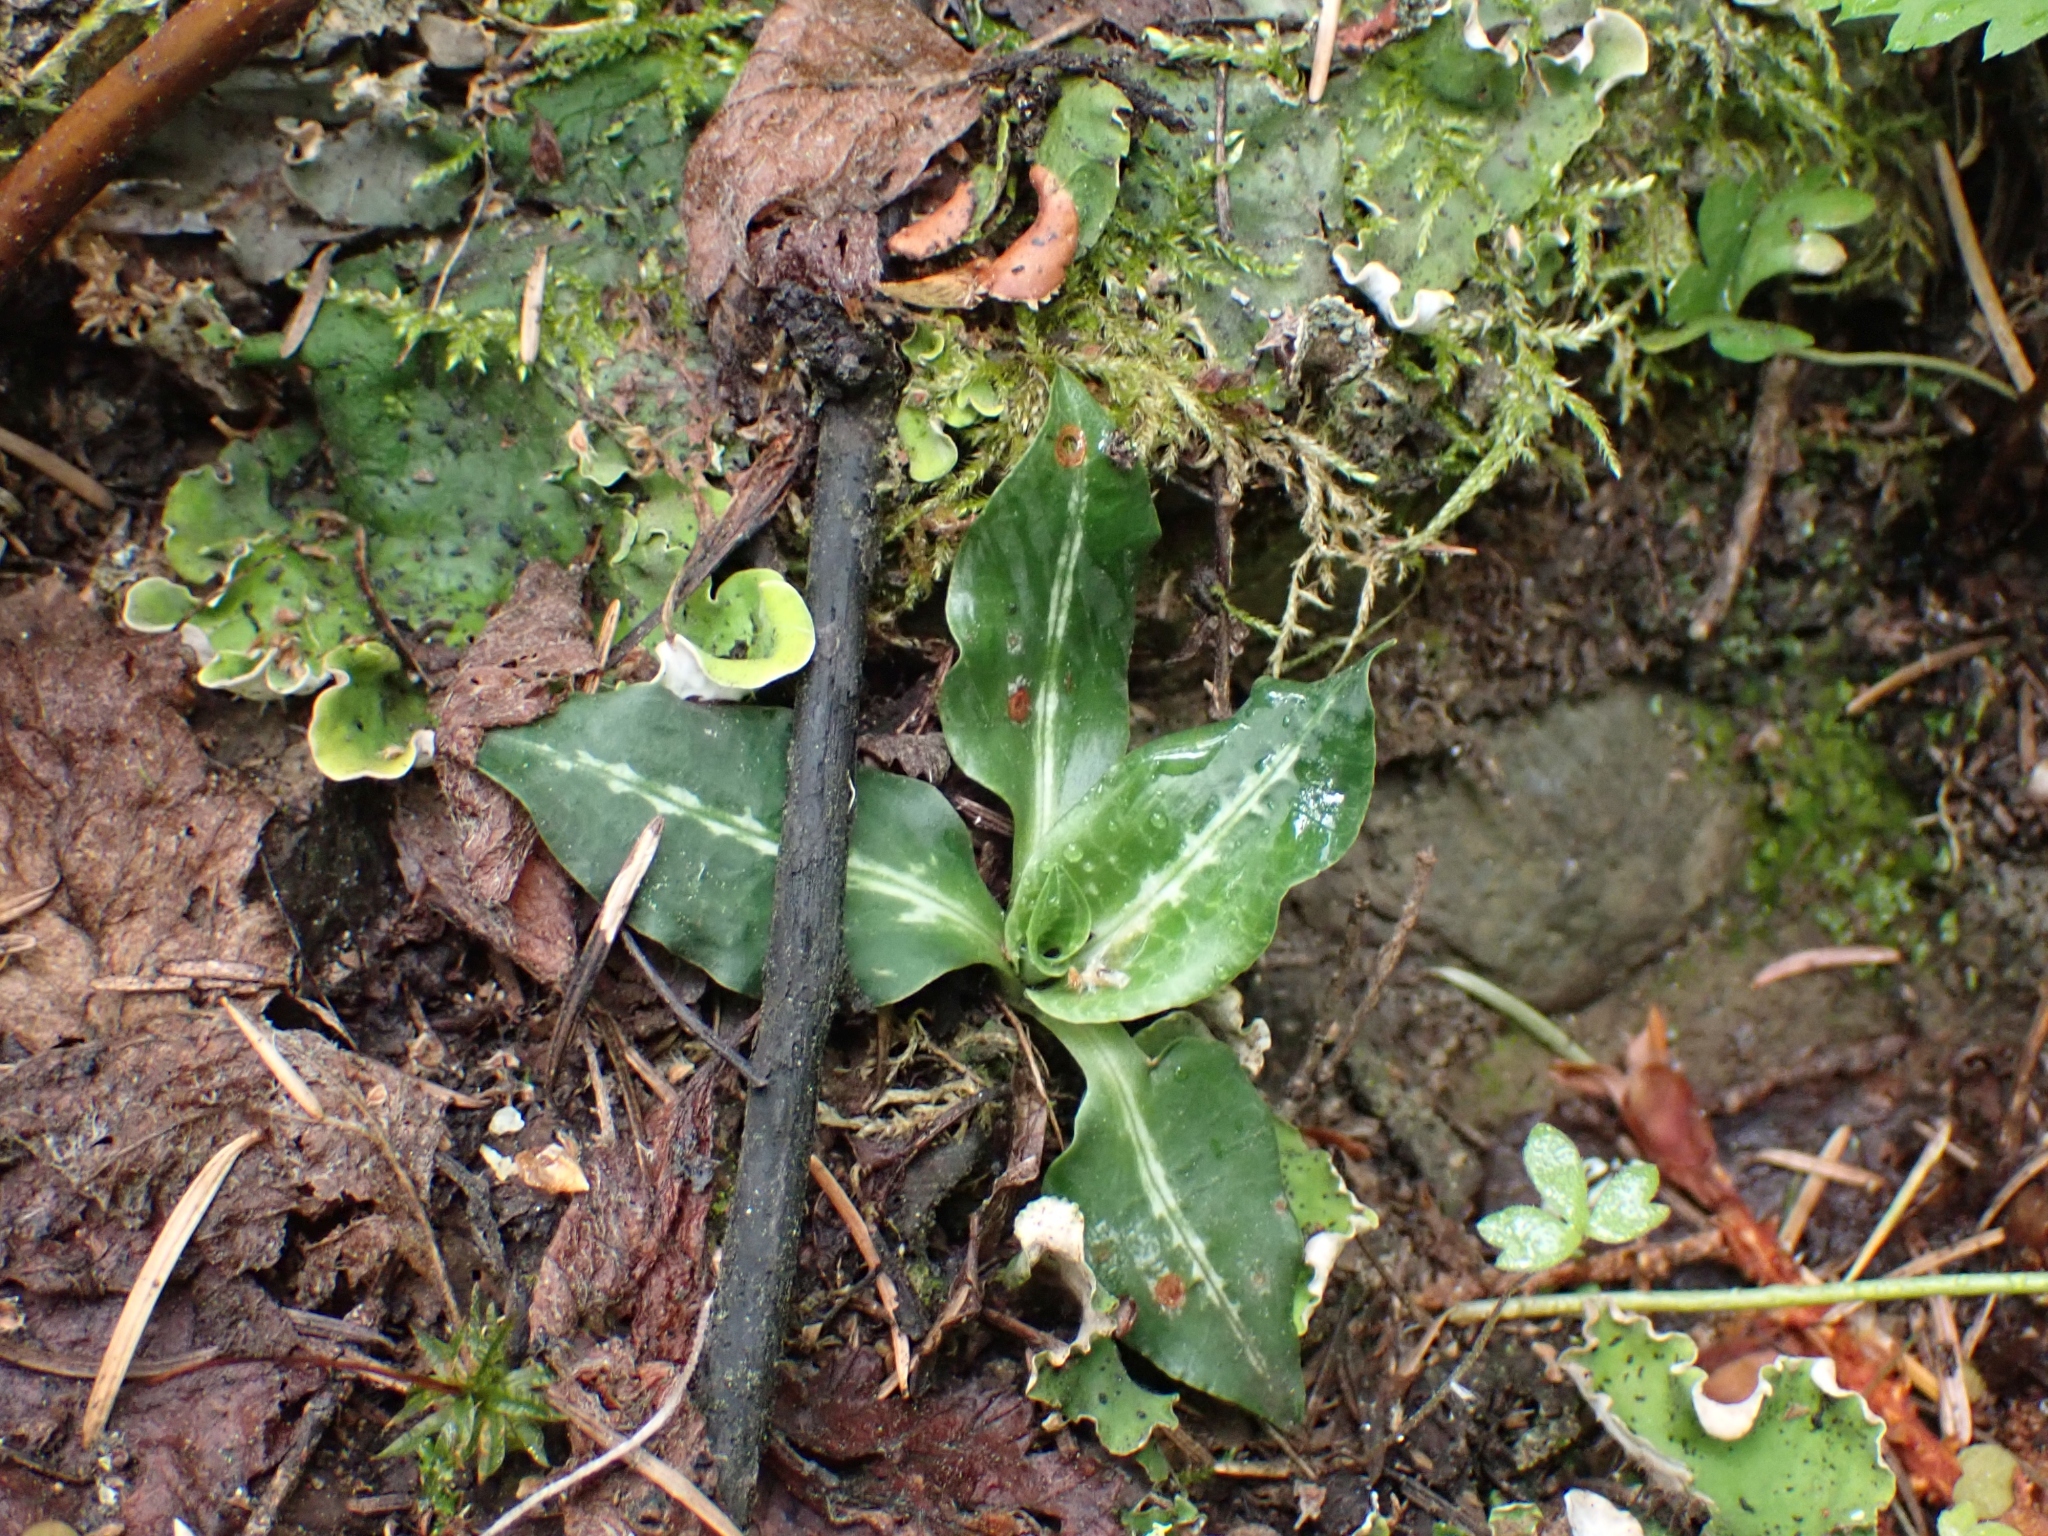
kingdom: Plantae
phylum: Tracheophyta
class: Liliopsida
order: Asparagales
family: Orchidaceae
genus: Goodyera
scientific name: Goodyera oblongifolia
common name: Giant rattlesnake-plantain
